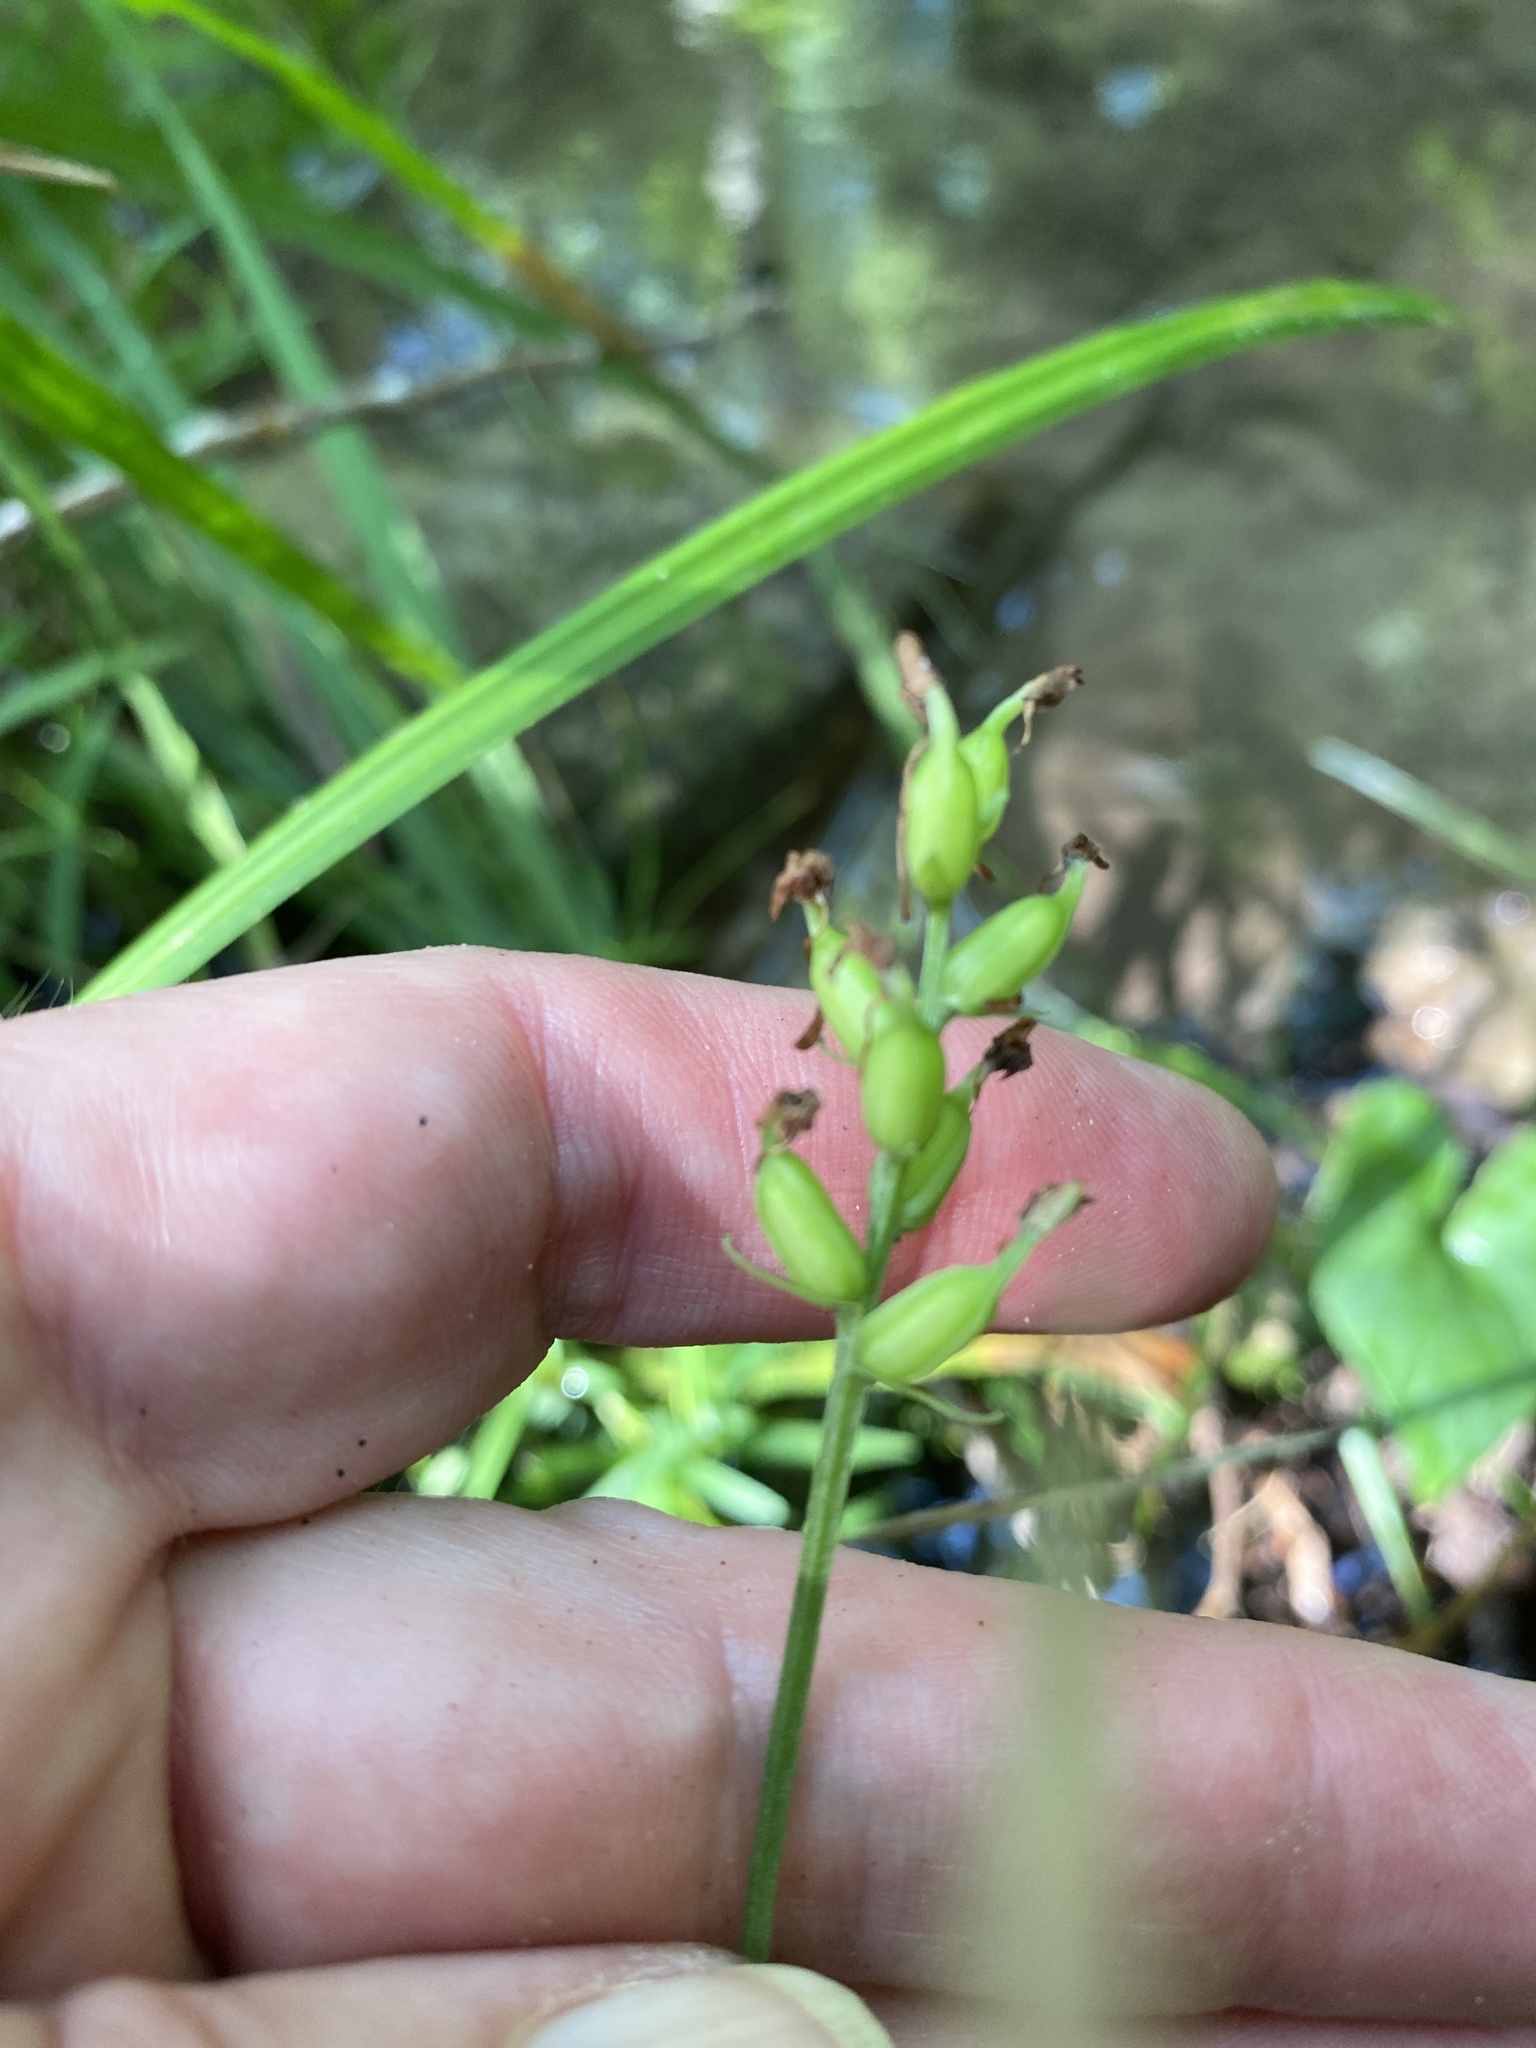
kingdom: Plantae
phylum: Tracheophyta
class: Liliopsida
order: Asparagales
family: Orchidaceae
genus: Platanthera
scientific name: Platanthera clavellata
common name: Club-spur orchid
